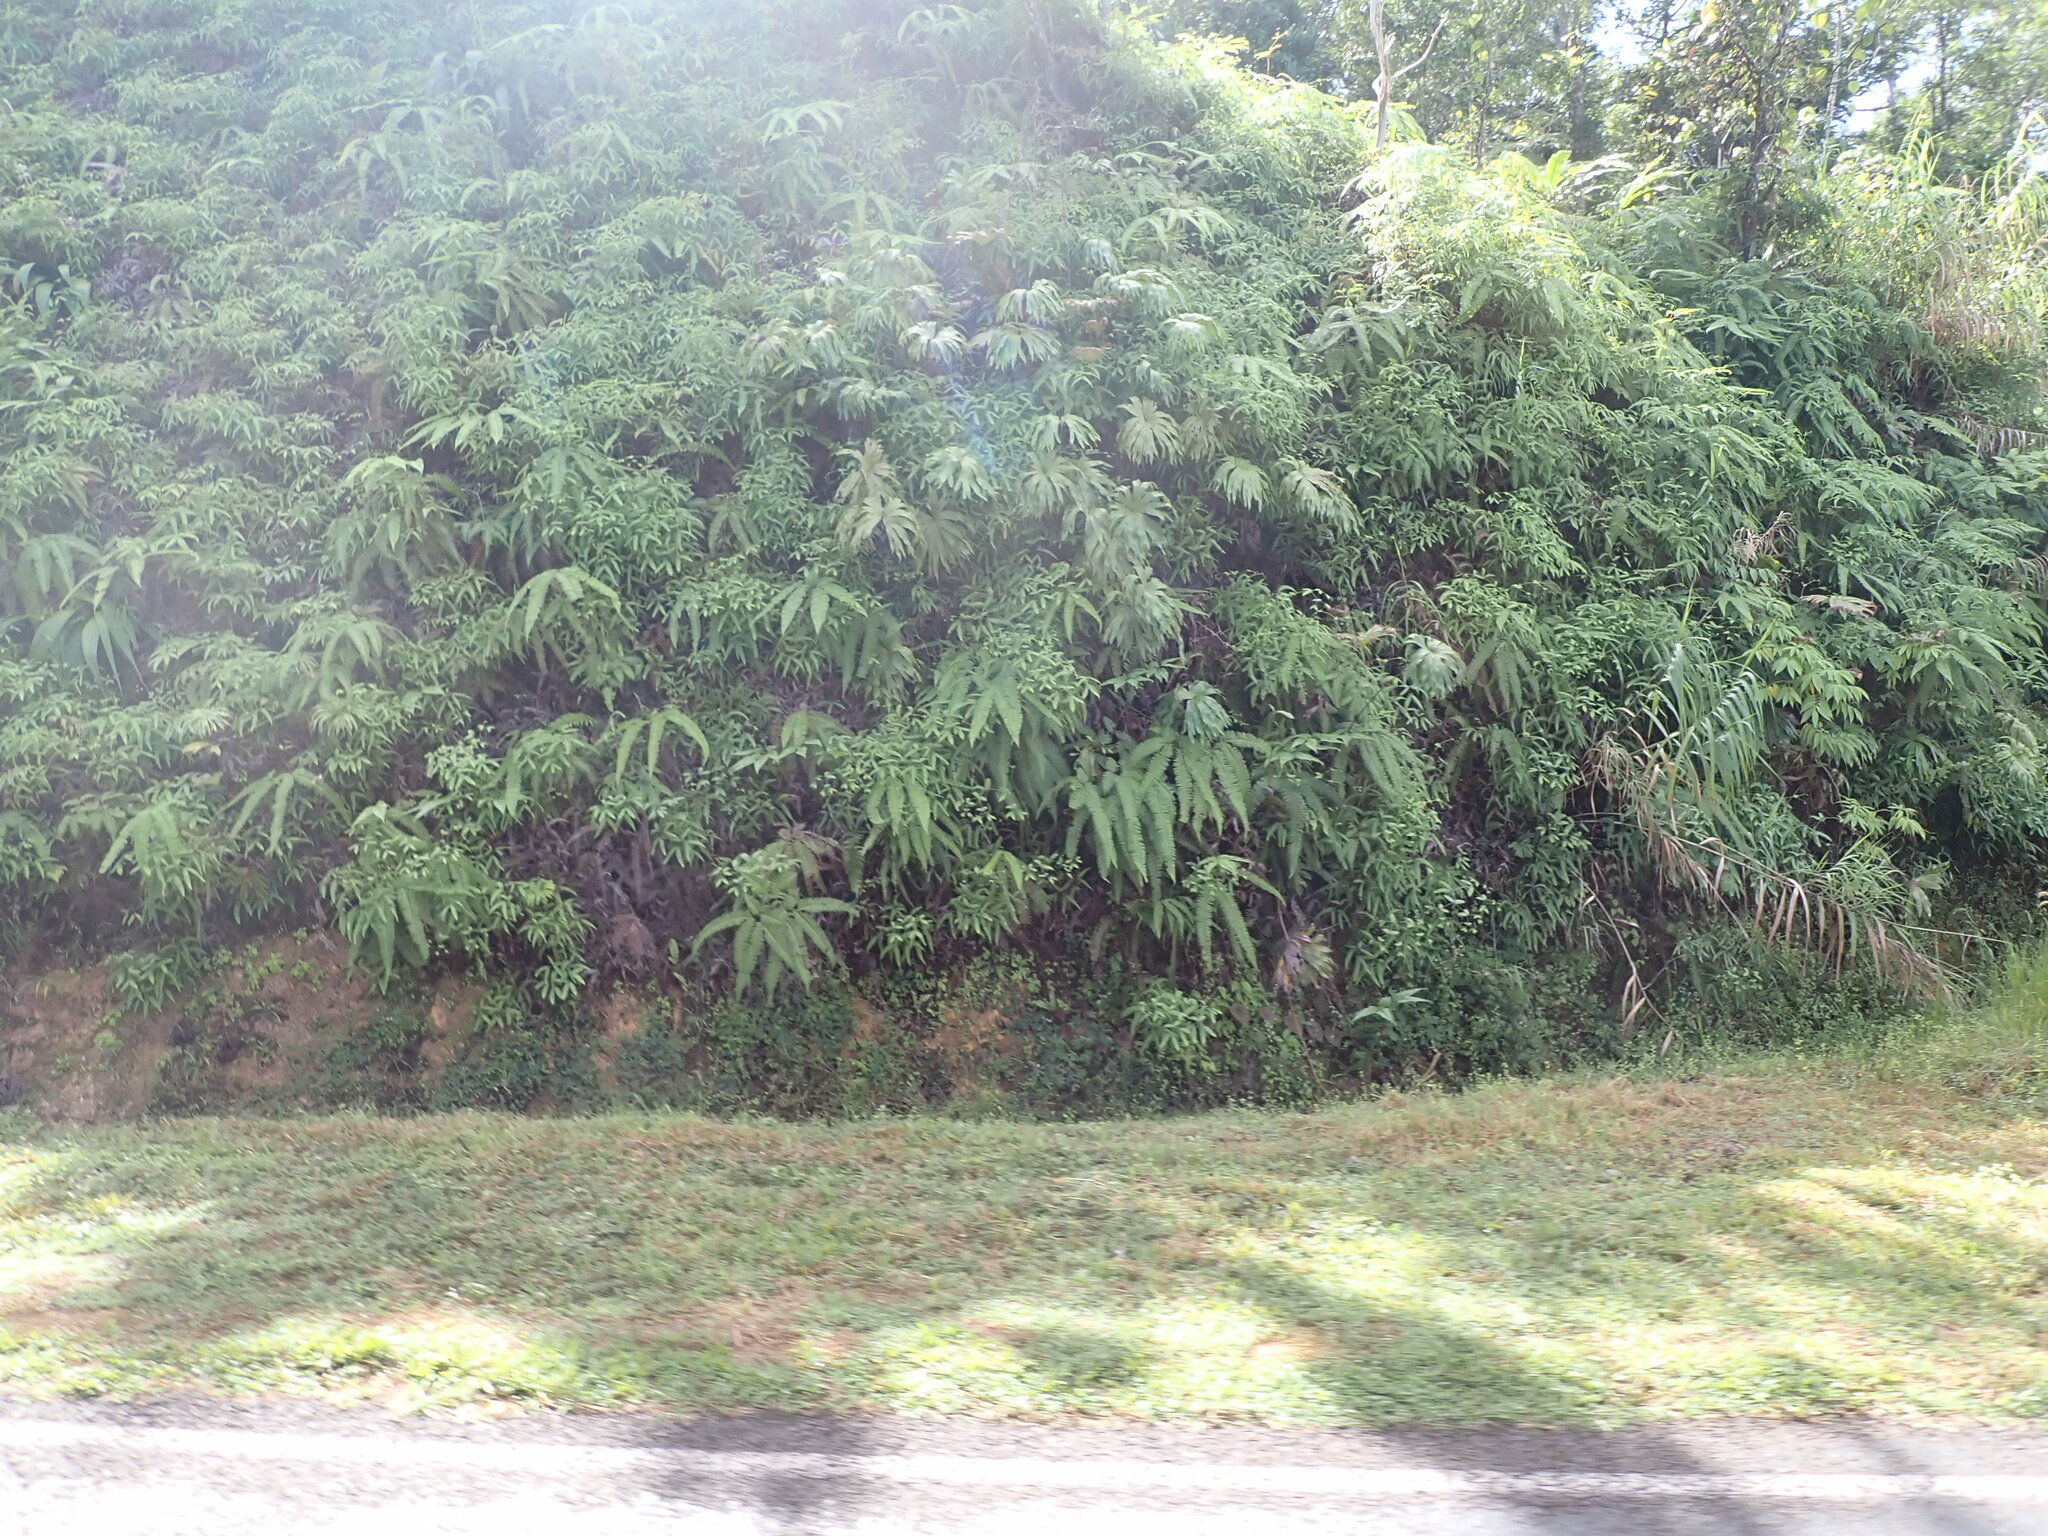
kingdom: Plantae
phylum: Tracheophyta
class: Polypodiopsida
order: Gleicheniales
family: Gleicheniaceae
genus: Dicranopteris
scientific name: Dicranopteris curranii
